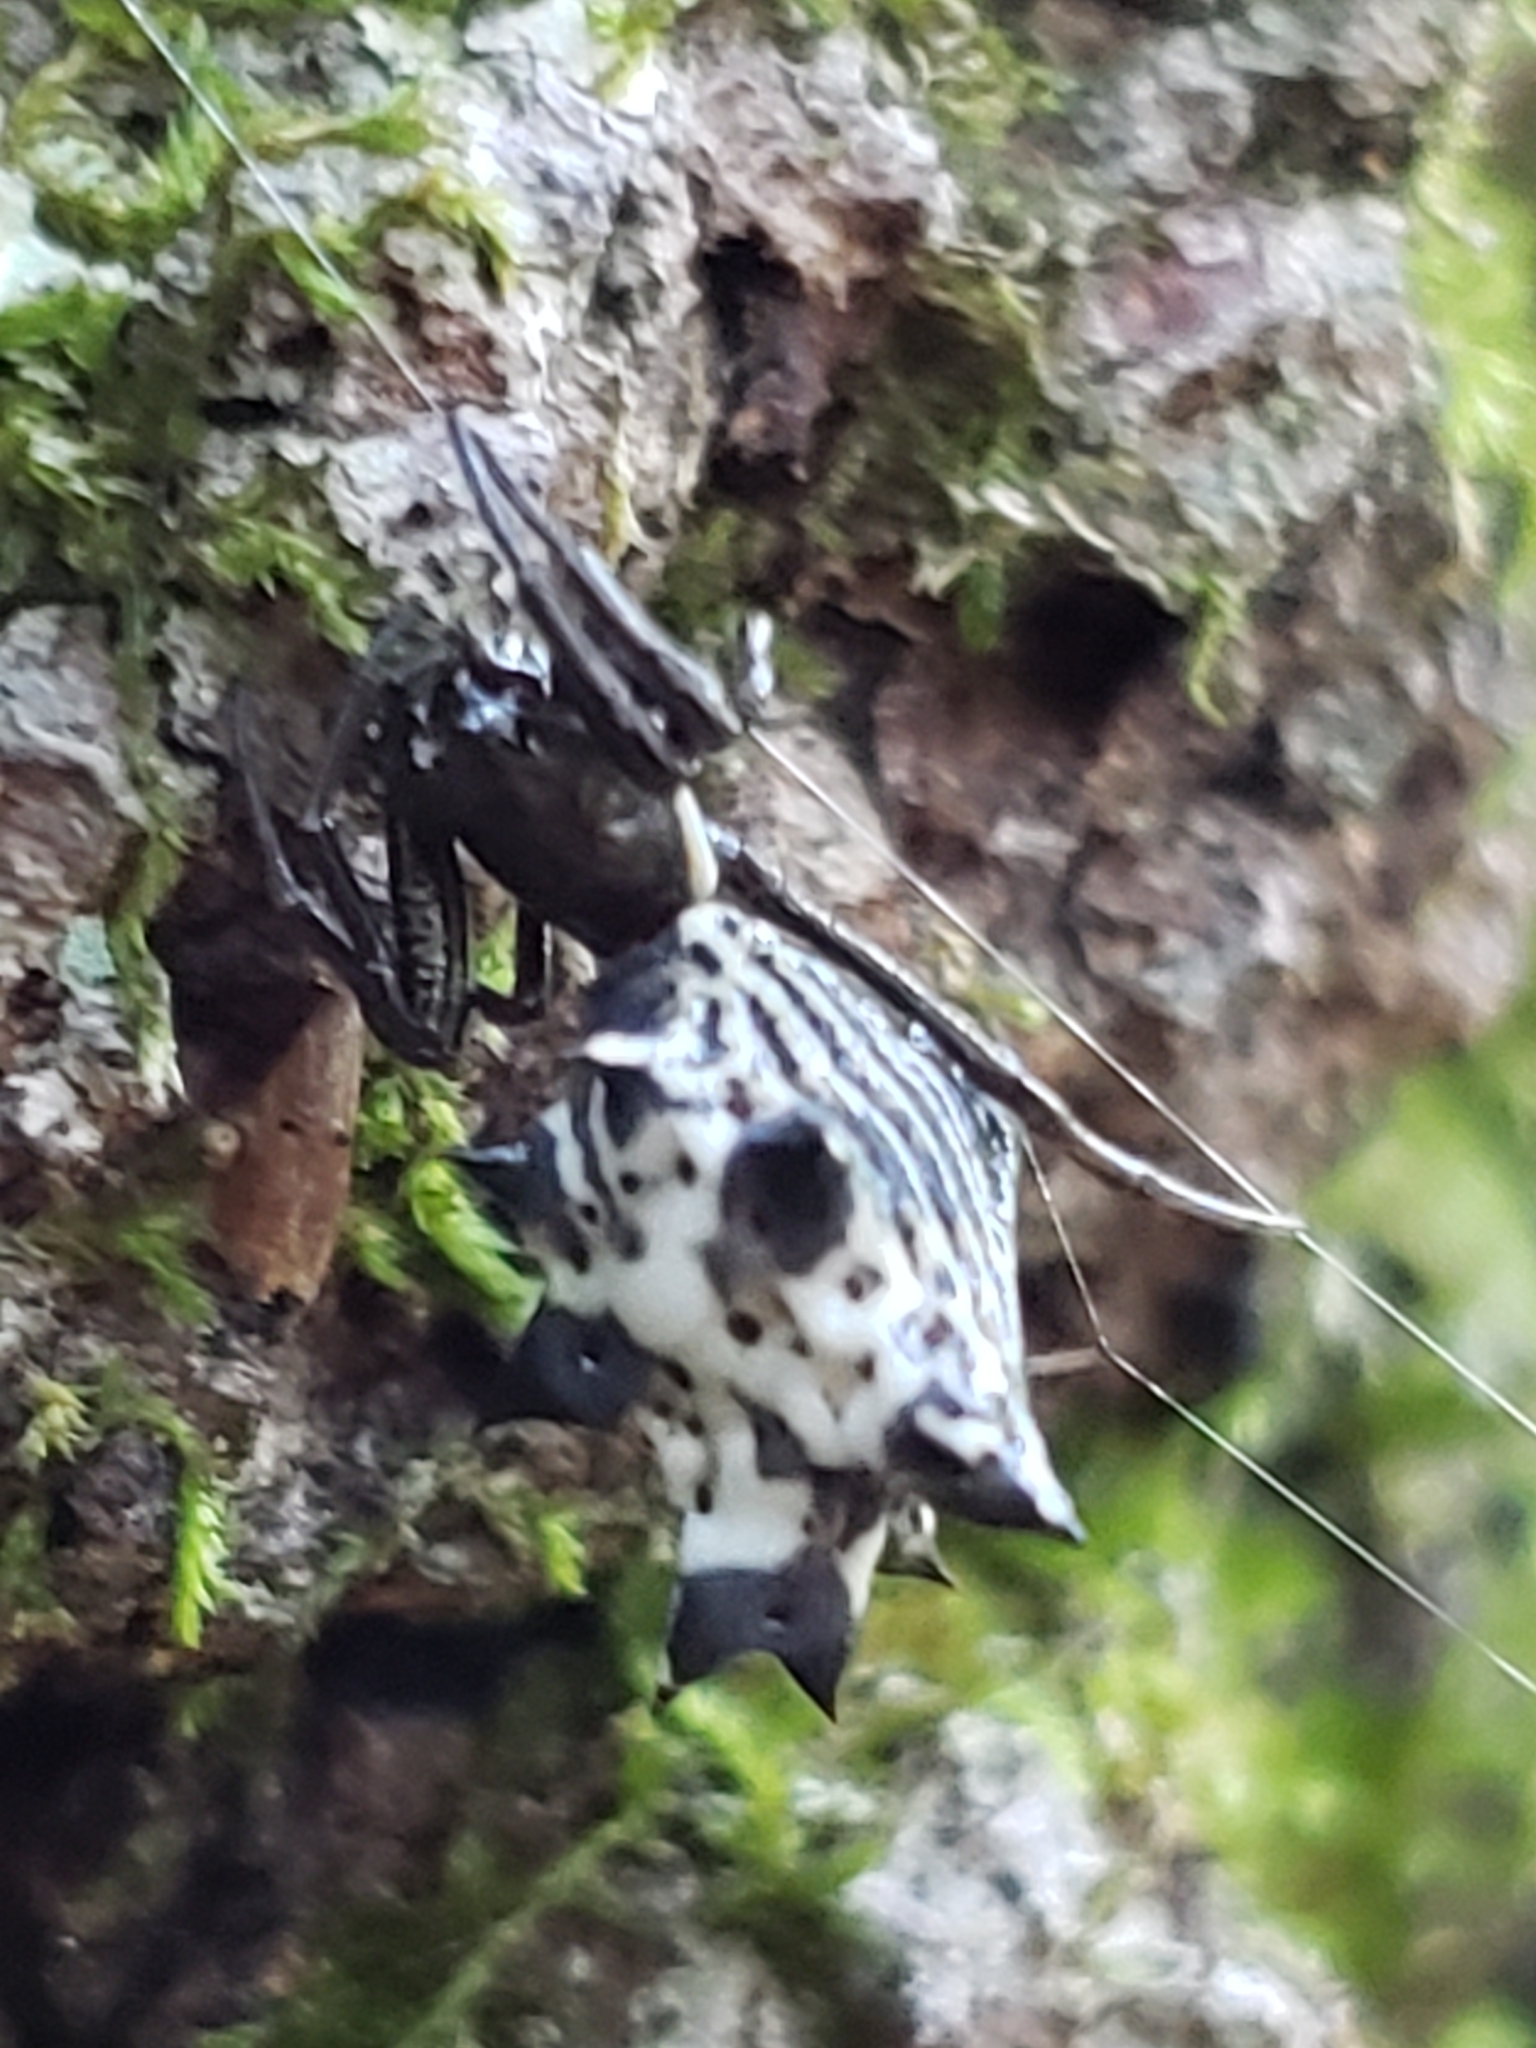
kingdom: Animalia
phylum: Arthropoda
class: Arachnida
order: Araneae
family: Araneidae
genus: Micrathena
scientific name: Micrathena gracilis
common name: Orb weavers
